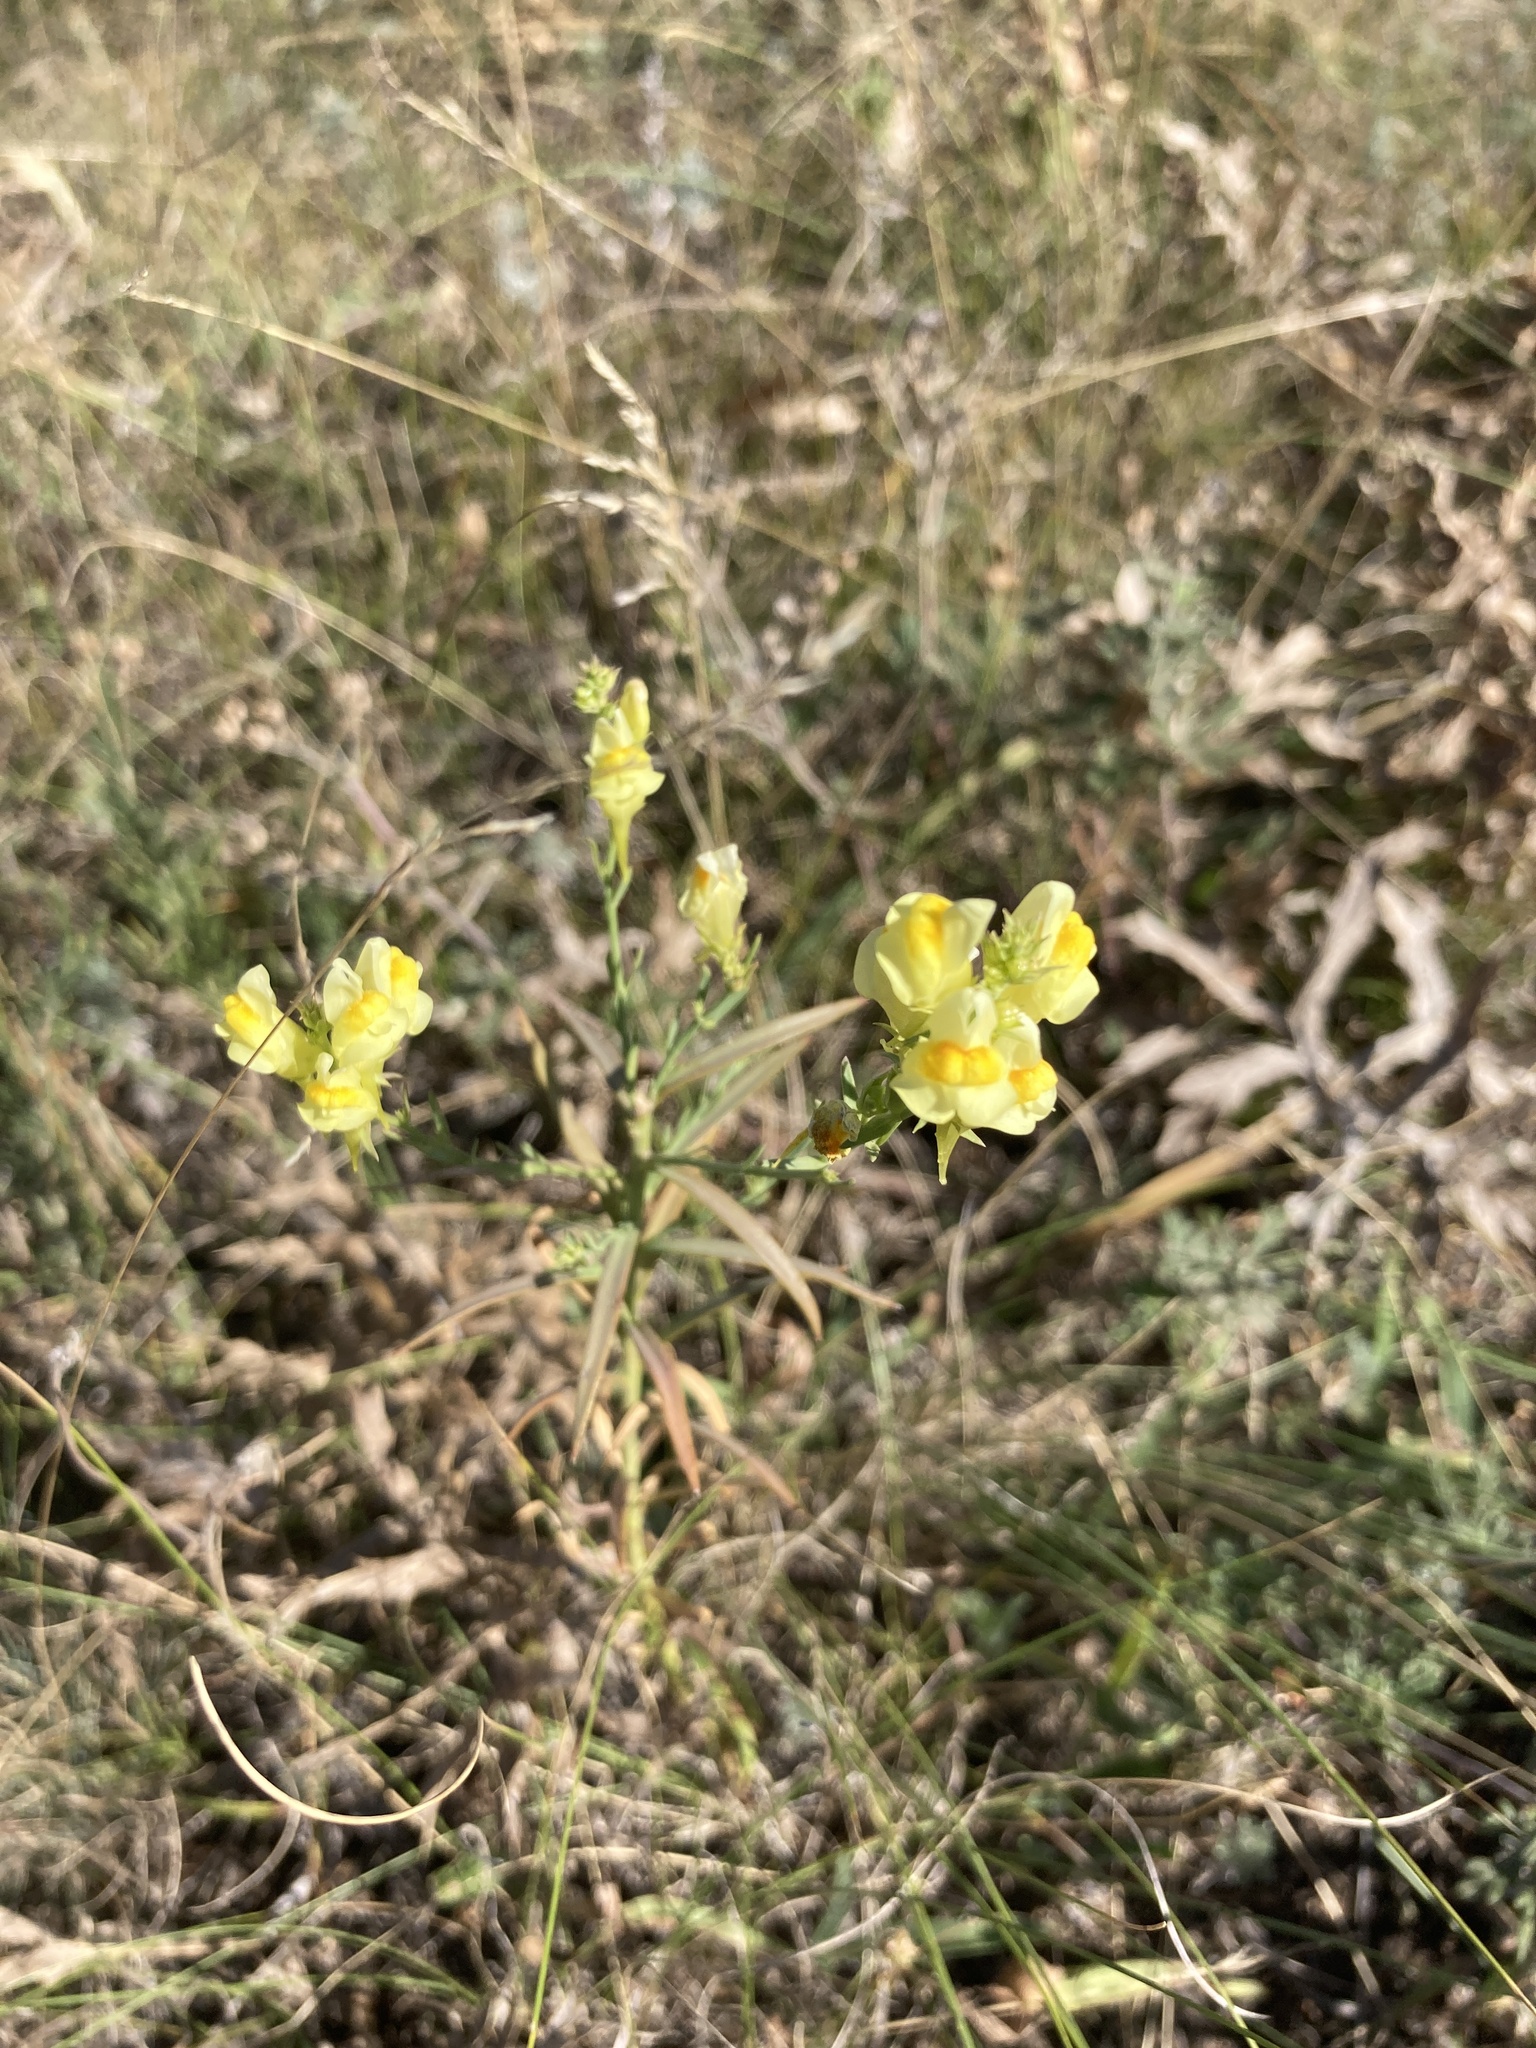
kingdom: Plantae
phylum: Tracheophyta
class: Magnoliopsida
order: Lamiales
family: Plantaginaceae
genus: Linaria
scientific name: Linaria vulgaris
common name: Butter and eggs
